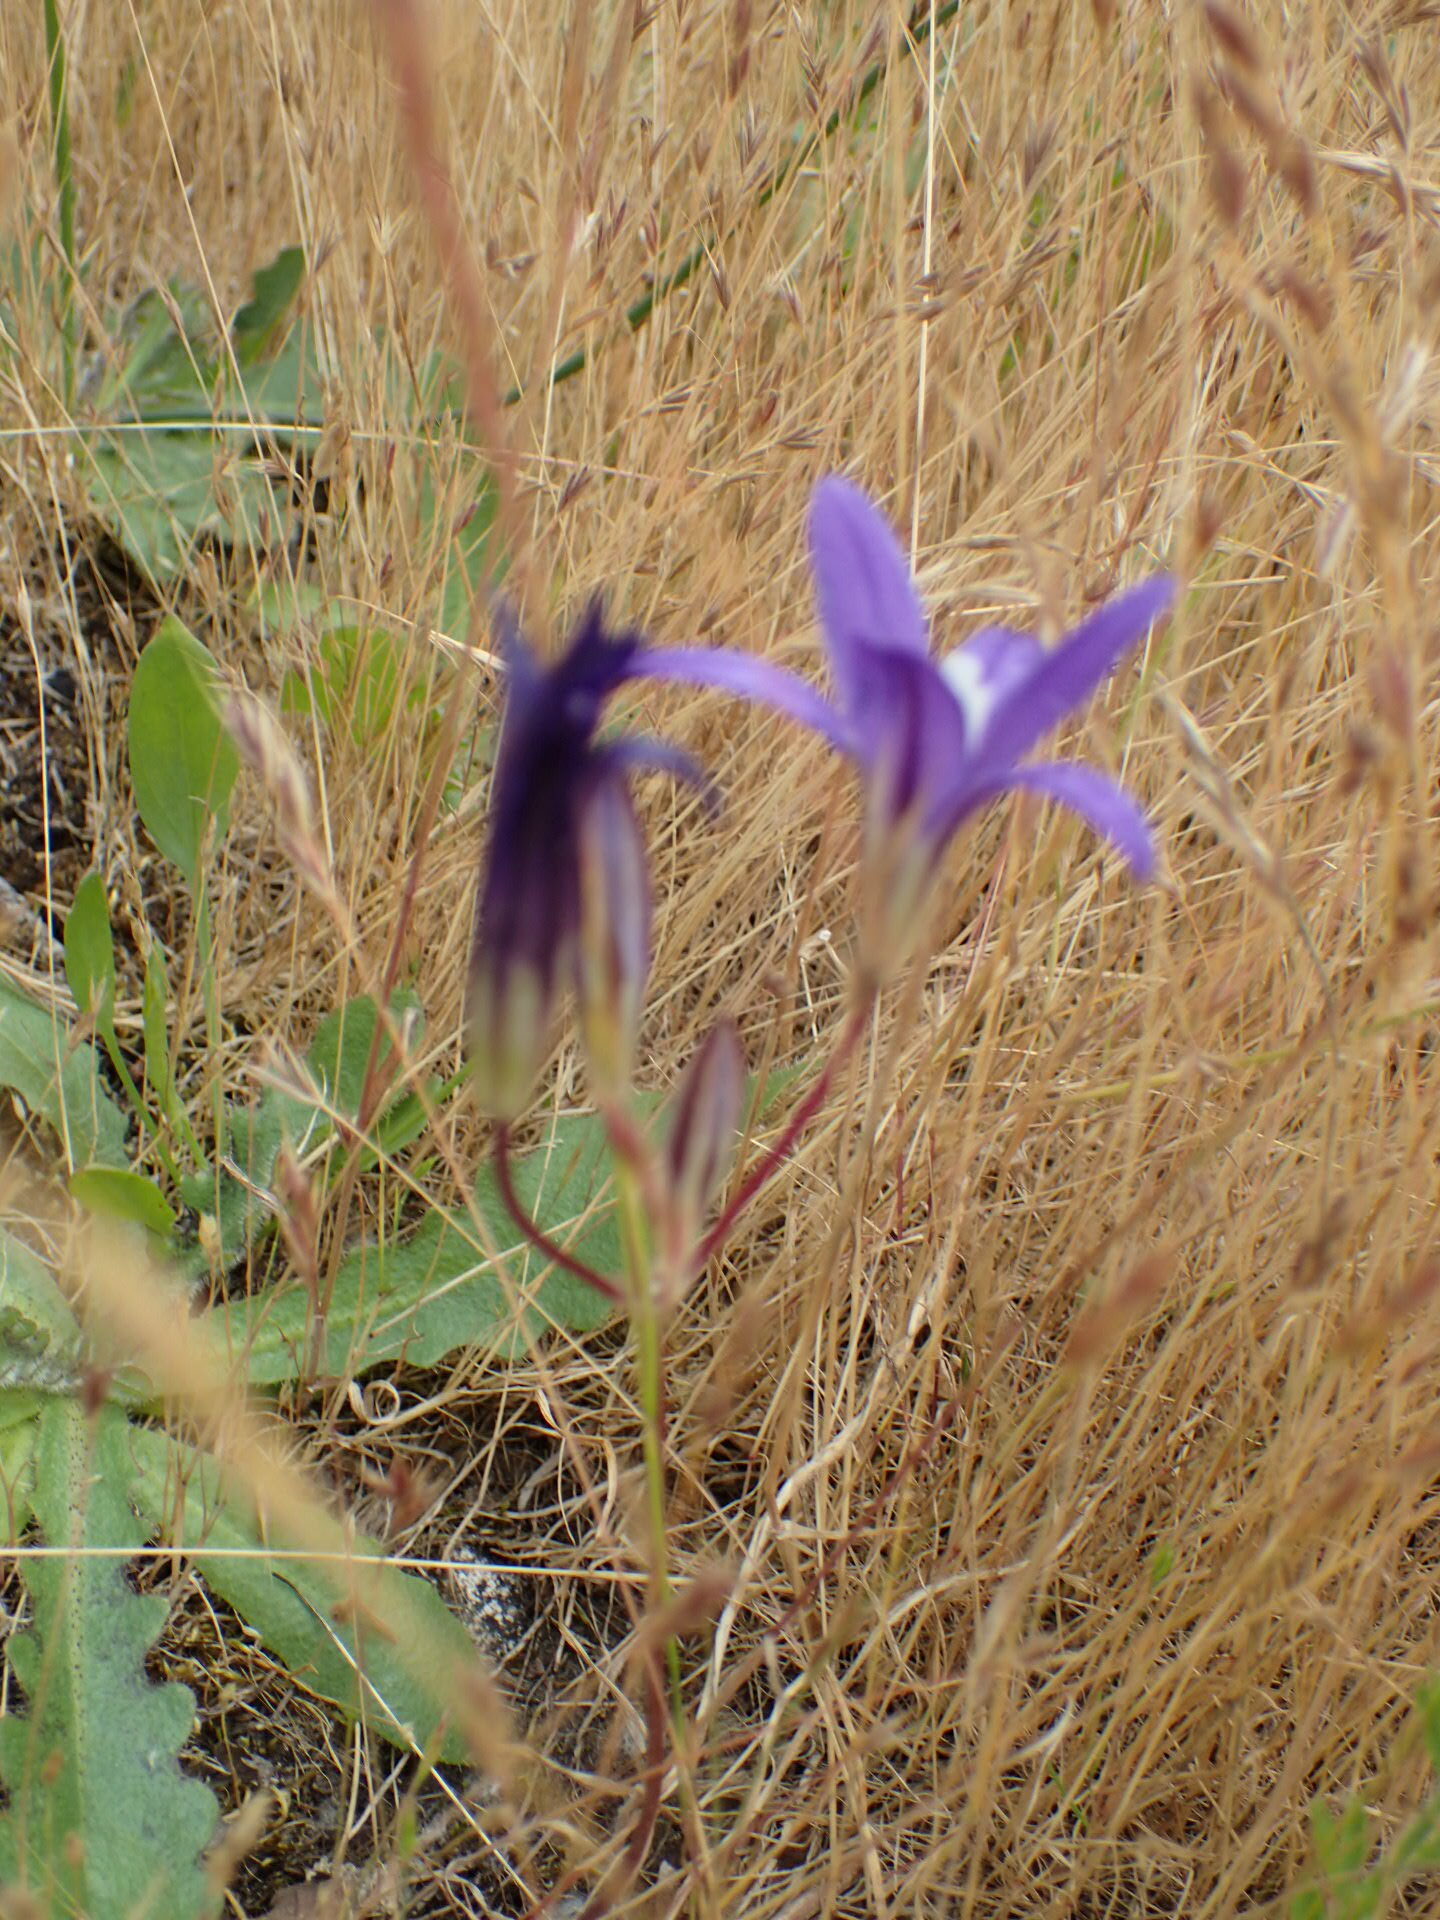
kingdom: Plantae
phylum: Tracheophyta
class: Liliopsida
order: Asparagales
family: Asparagaceae
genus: Brodiaea
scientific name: Brodiaea coronaria
